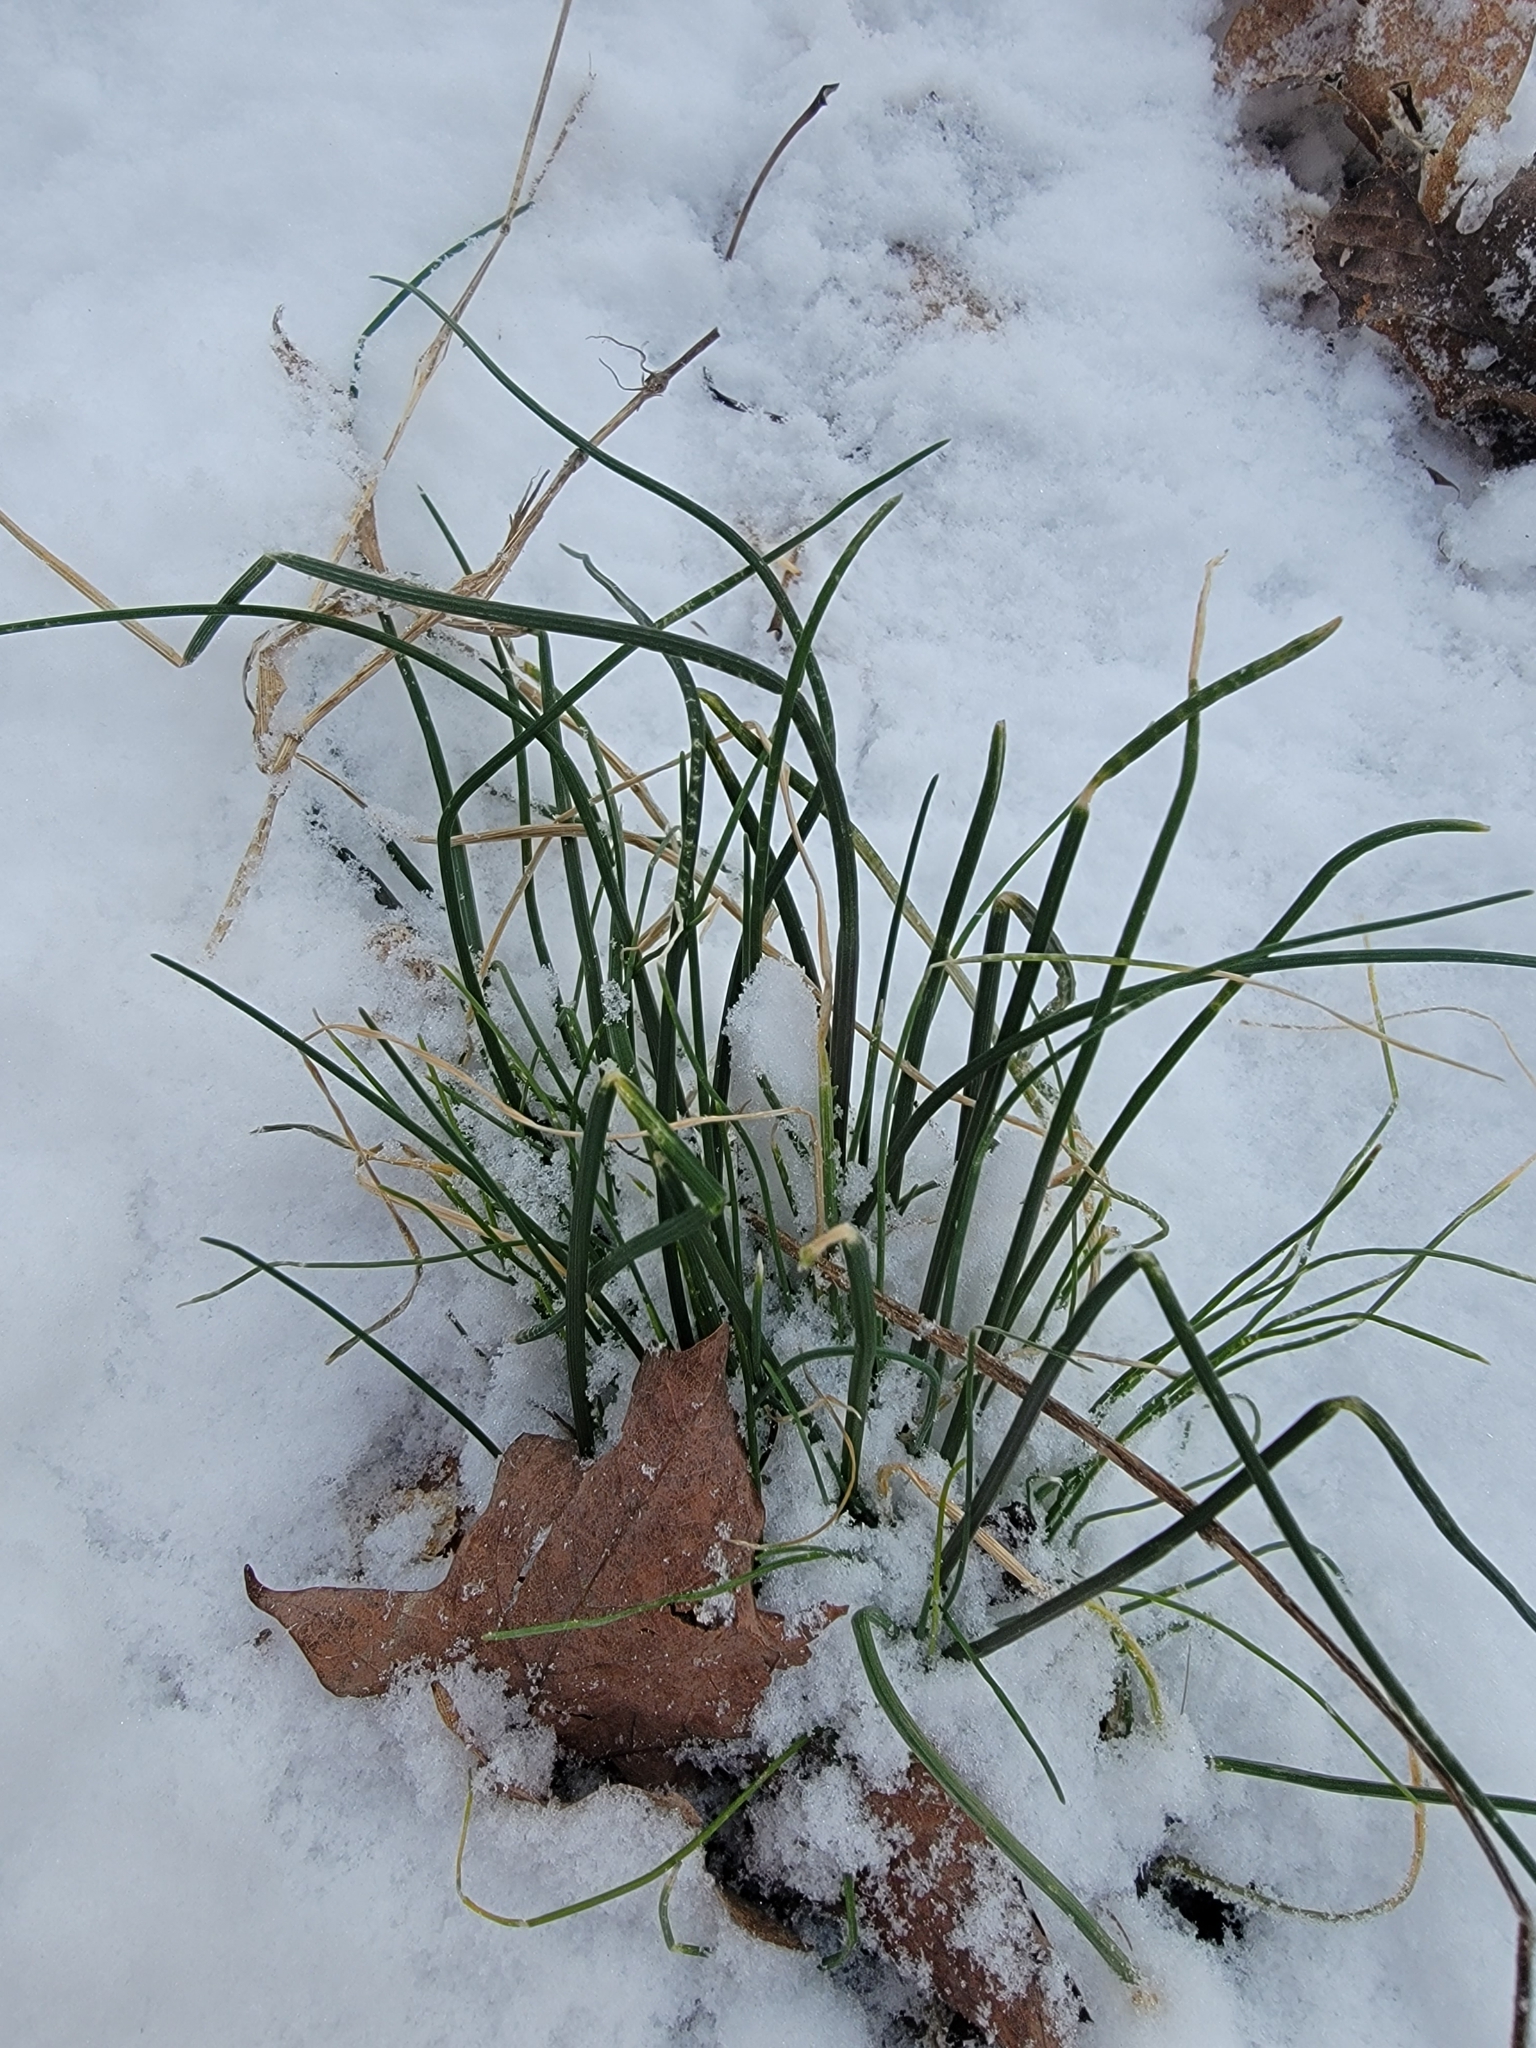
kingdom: Plantae
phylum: Tracheophyta
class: Liliopsida
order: Asparagales
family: Amaryllidaceae
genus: Allium
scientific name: Allium vineale
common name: Crow garlic
